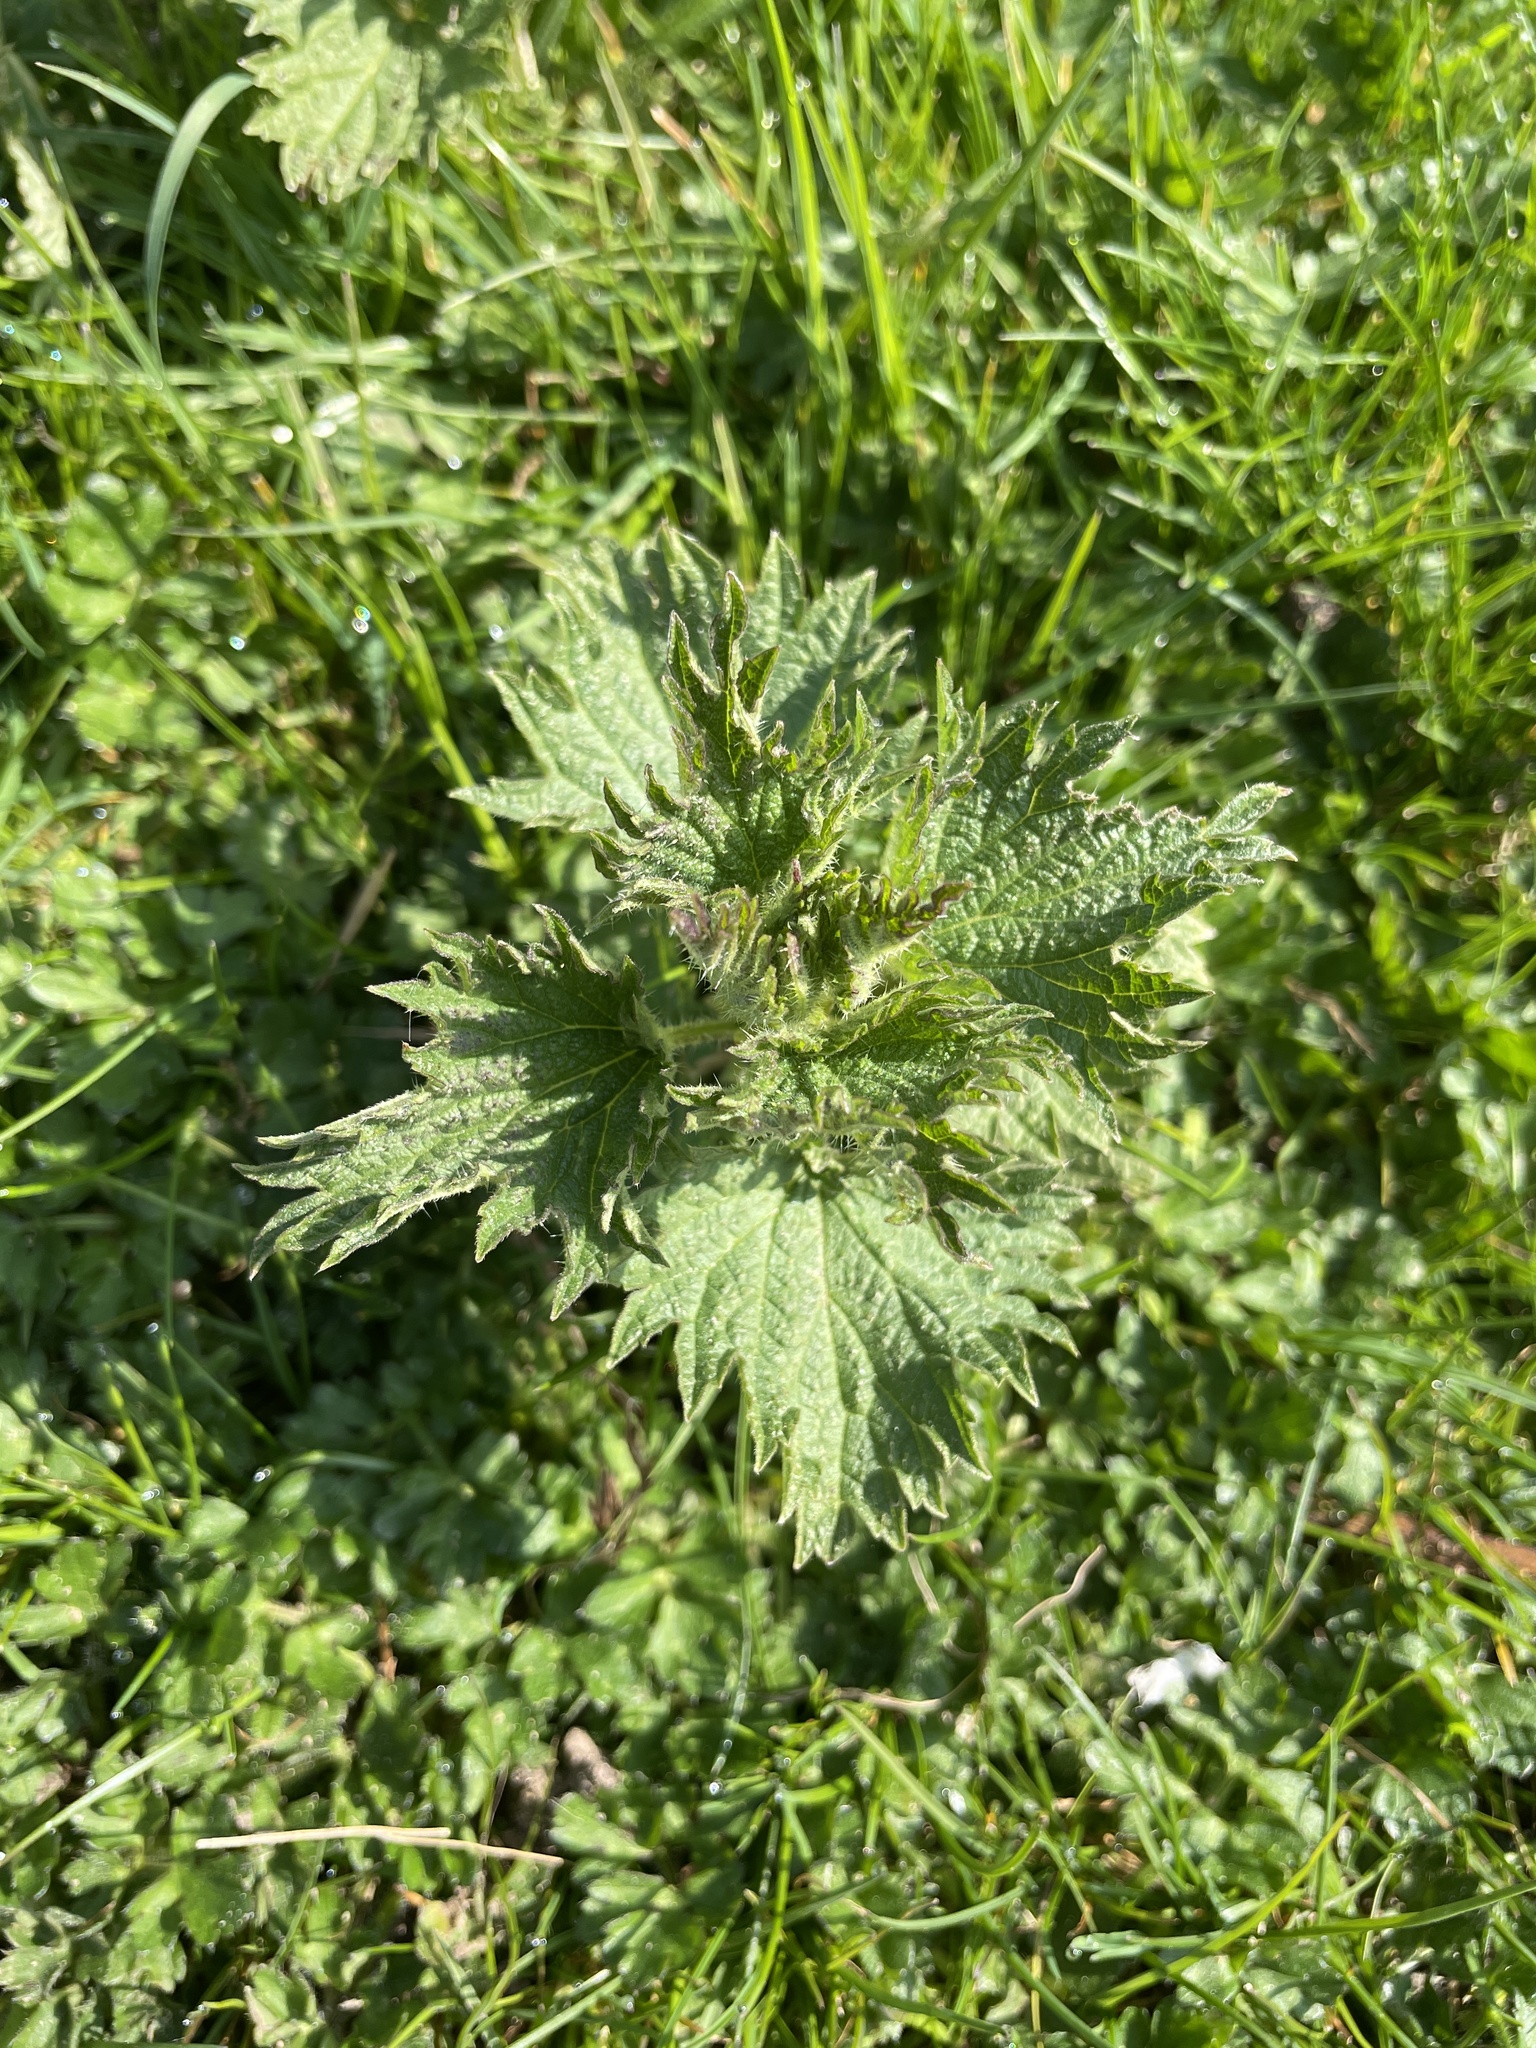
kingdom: Plantae
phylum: Tracheophyta
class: Magnoliopsida
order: Rosales
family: Urticaceae
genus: Urtica
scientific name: Urtica dioica
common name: Common nettle
